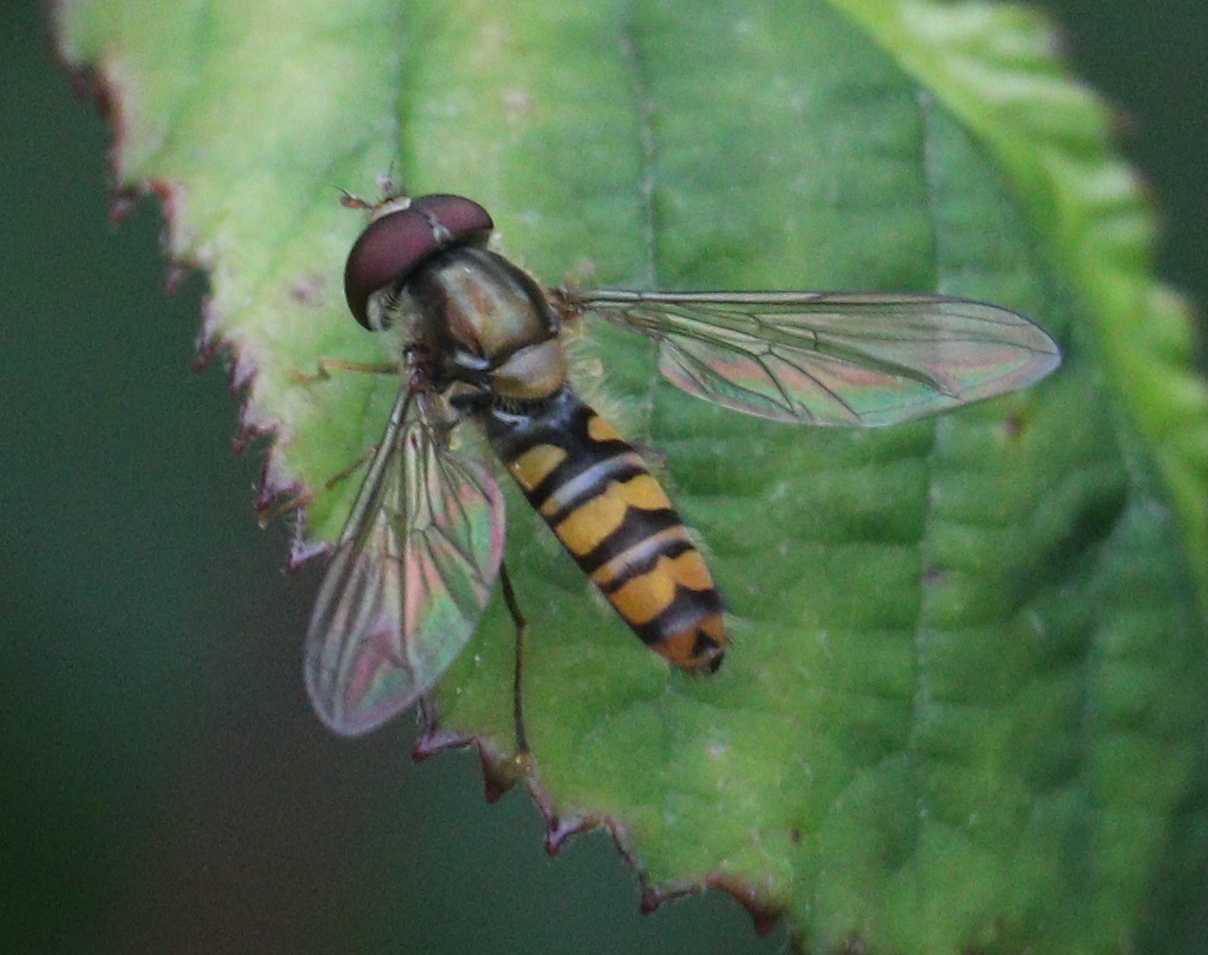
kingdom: Animalia
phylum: Arthropoda
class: Insecta
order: Diptera
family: Syrphidae
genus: Episyrphus
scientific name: Episyrphus balteatus
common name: Marmalade hoverfly
